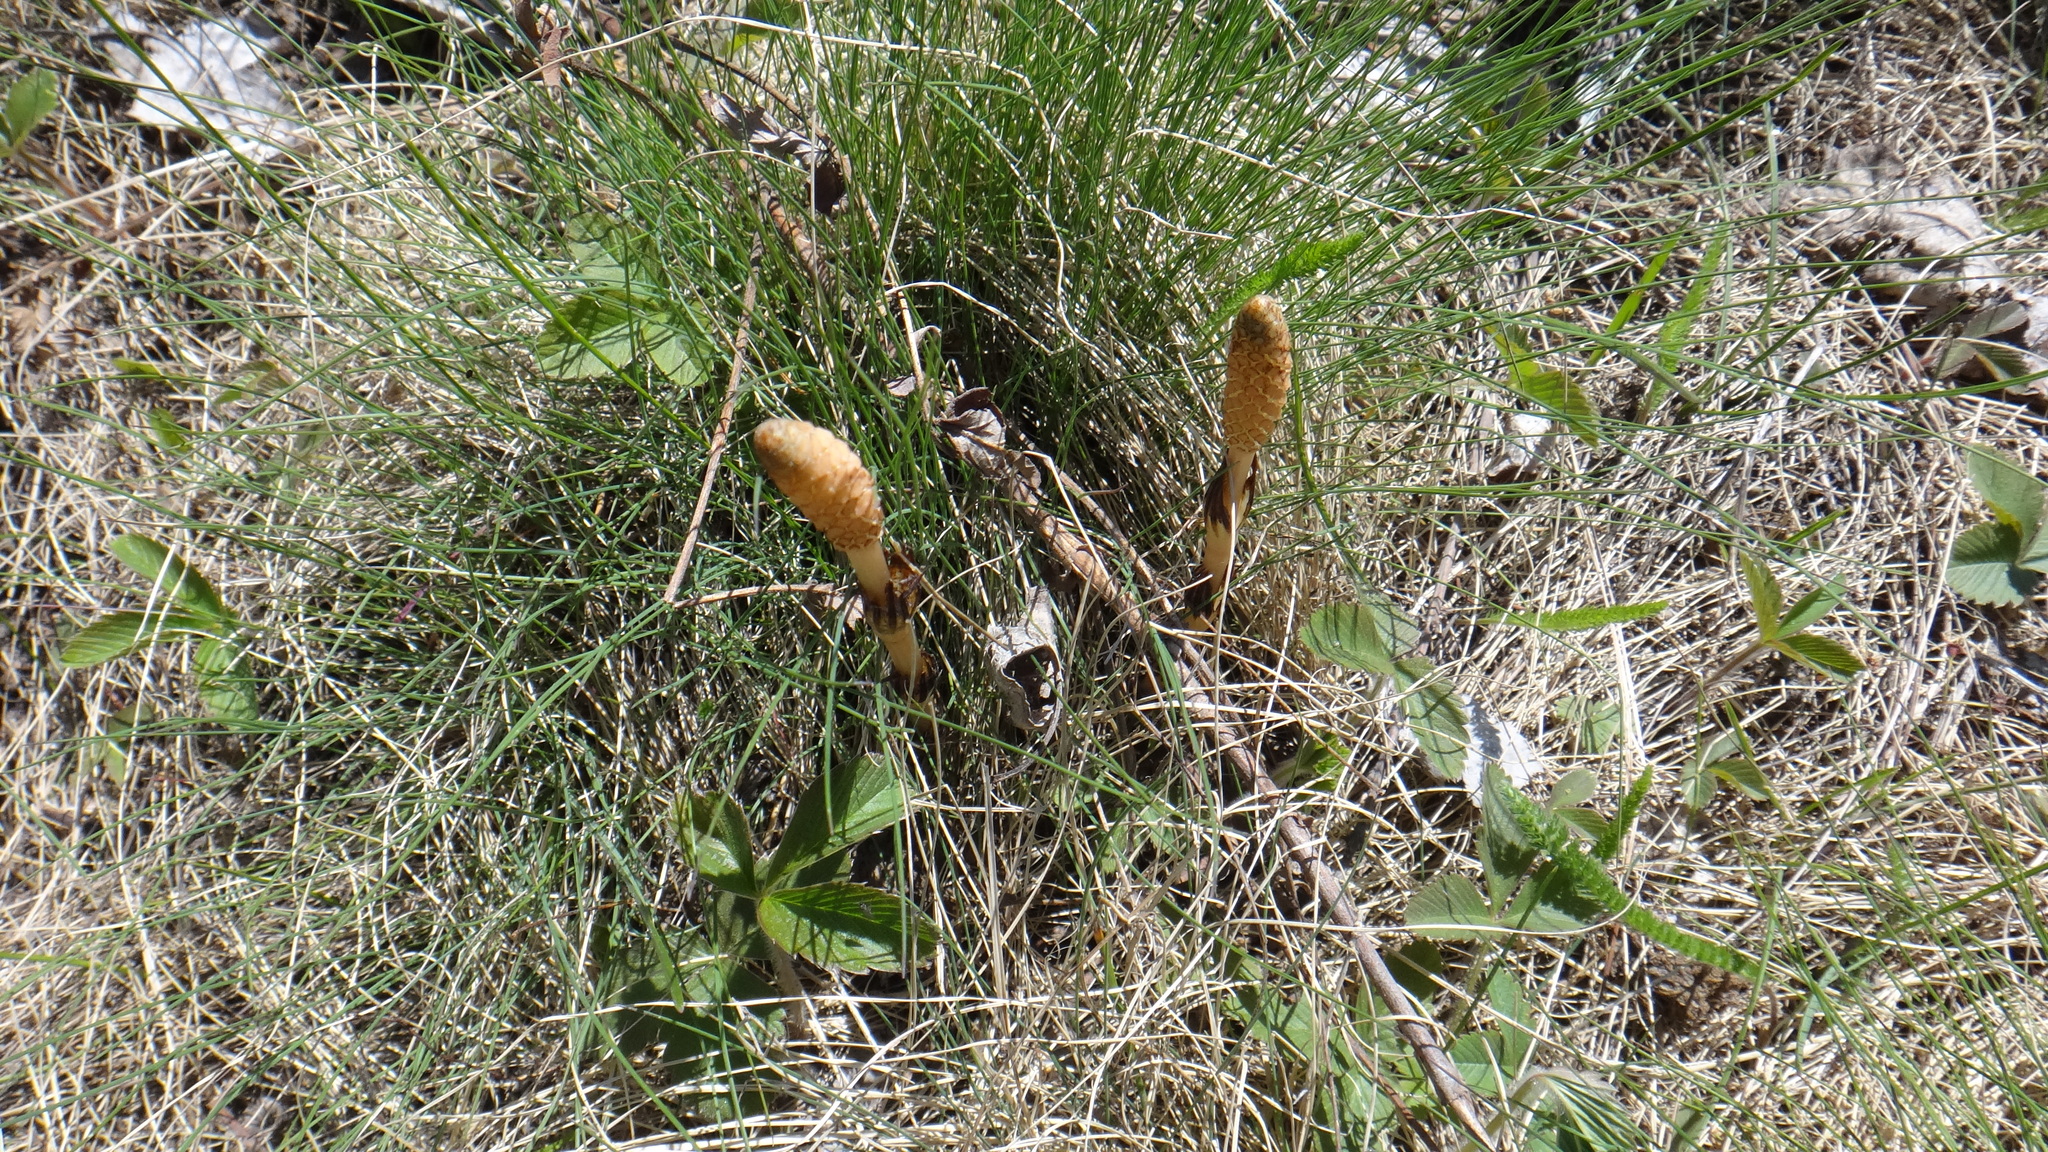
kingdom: Plantae
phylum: Tracheophyta
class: Polypodiopsida
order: Equisetales
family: Equisetaceae
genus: Equisetum
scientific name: Equisetum arvense
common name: Field horsetail
